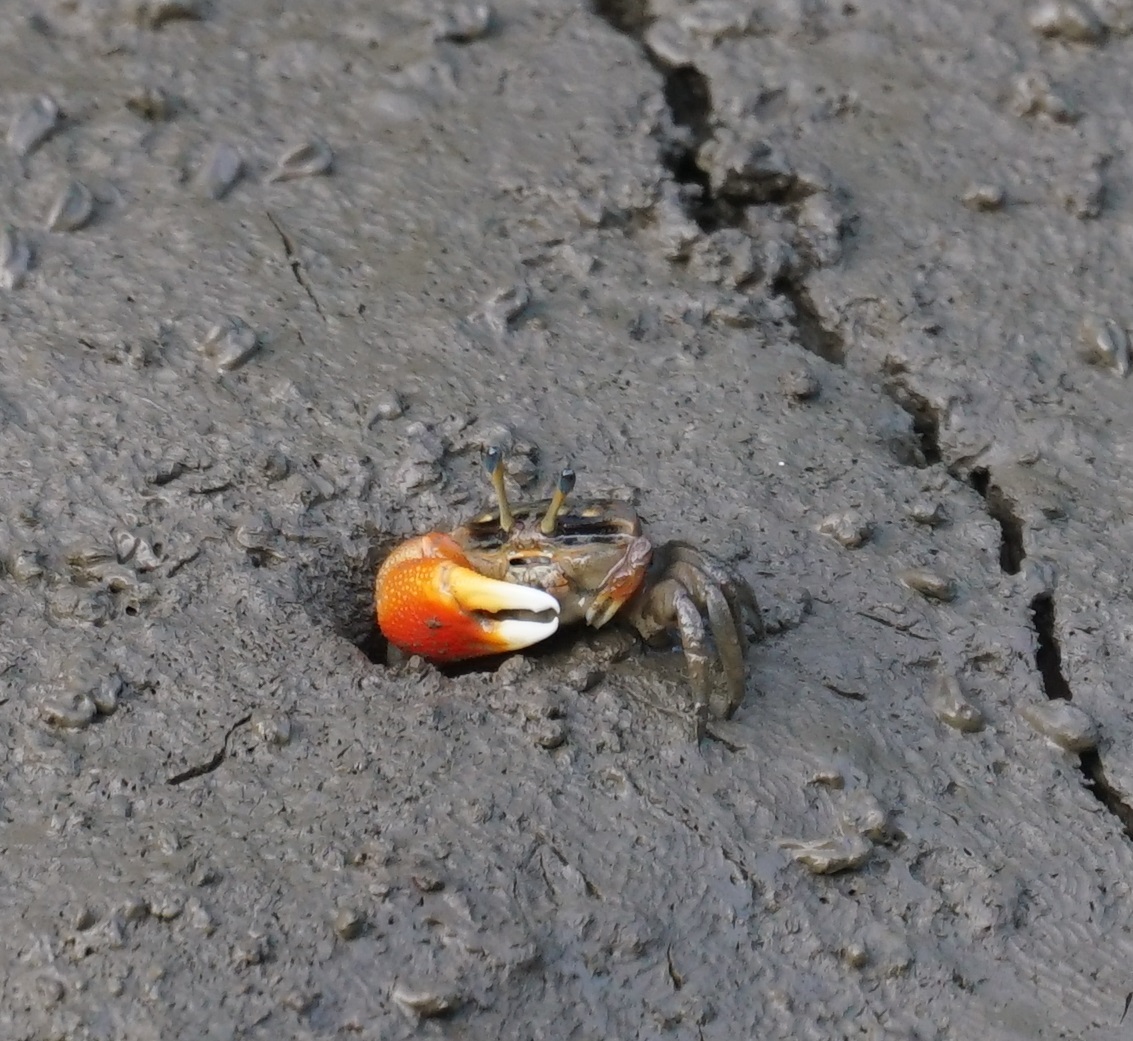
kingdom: Animalia
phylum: Arthropoda
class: Malacostraca
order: Decapoda
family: Ocypodidae
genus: Tubuca
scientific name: Tubuca coarctata
